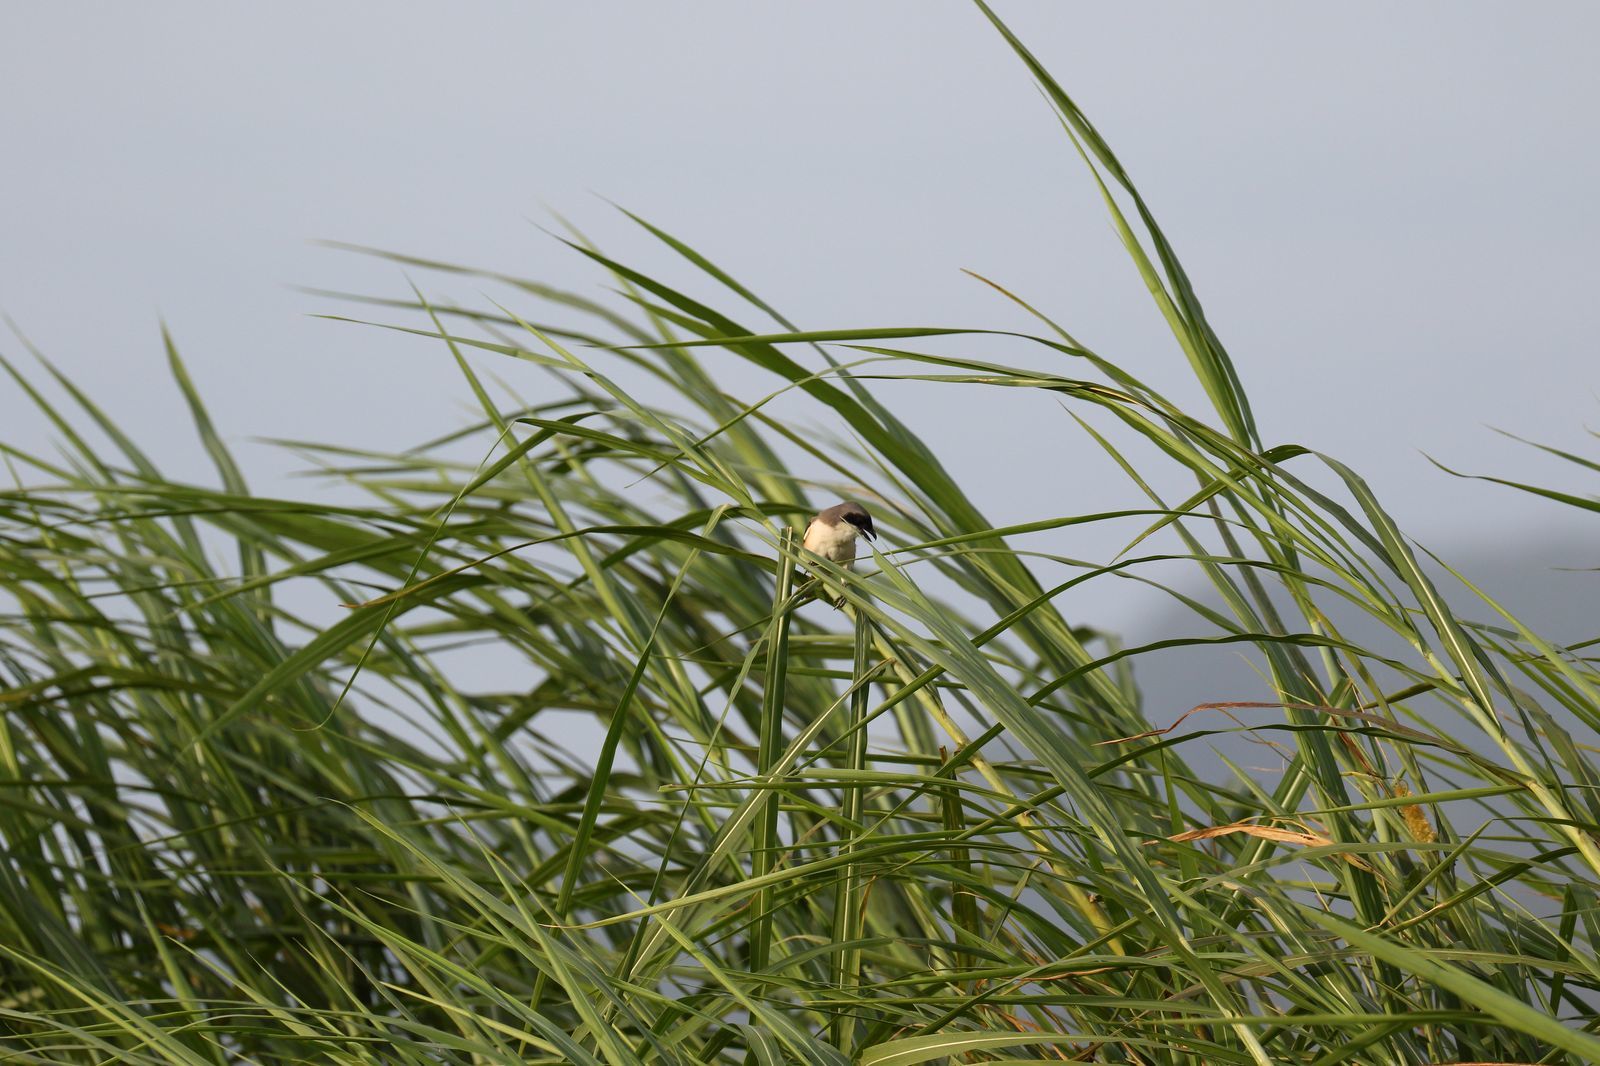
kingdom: Animalia
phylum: Chordata
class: Aves
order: Passeriformes
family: Laniidae
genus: Lanius
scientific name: Lanius schach
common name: Long-tailed shrike
